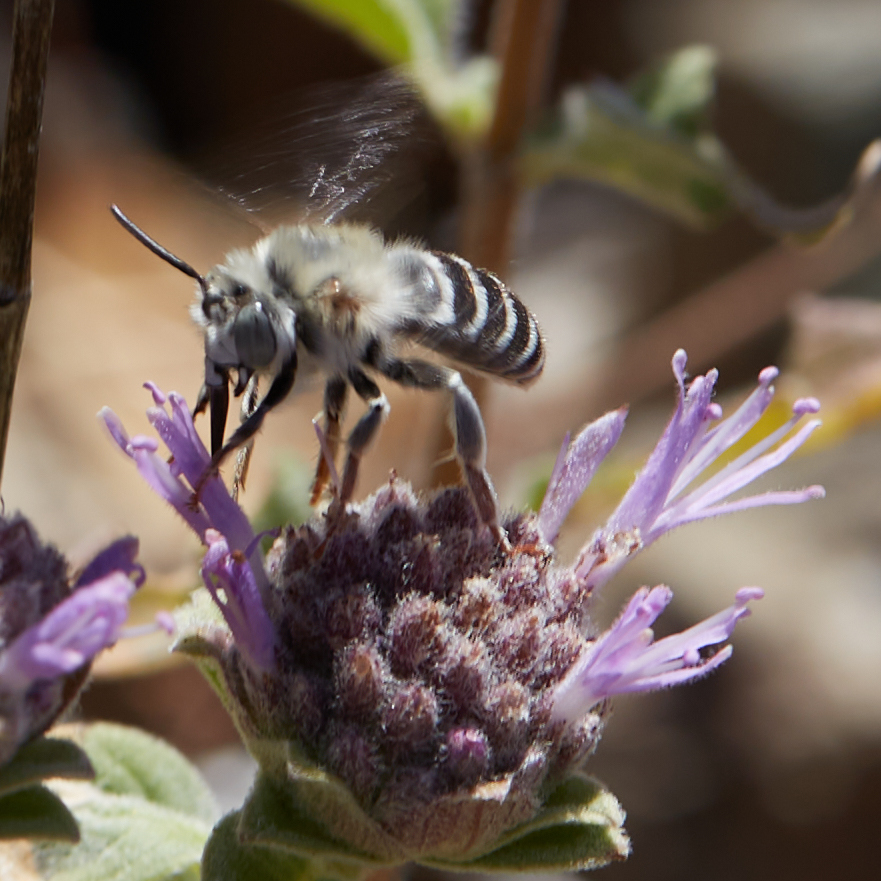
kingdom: Animalia
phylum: Arthropoda
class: Insecta
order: Hymenoptera
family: Apidae
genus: Anthophora
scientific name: Anthophora urbana
